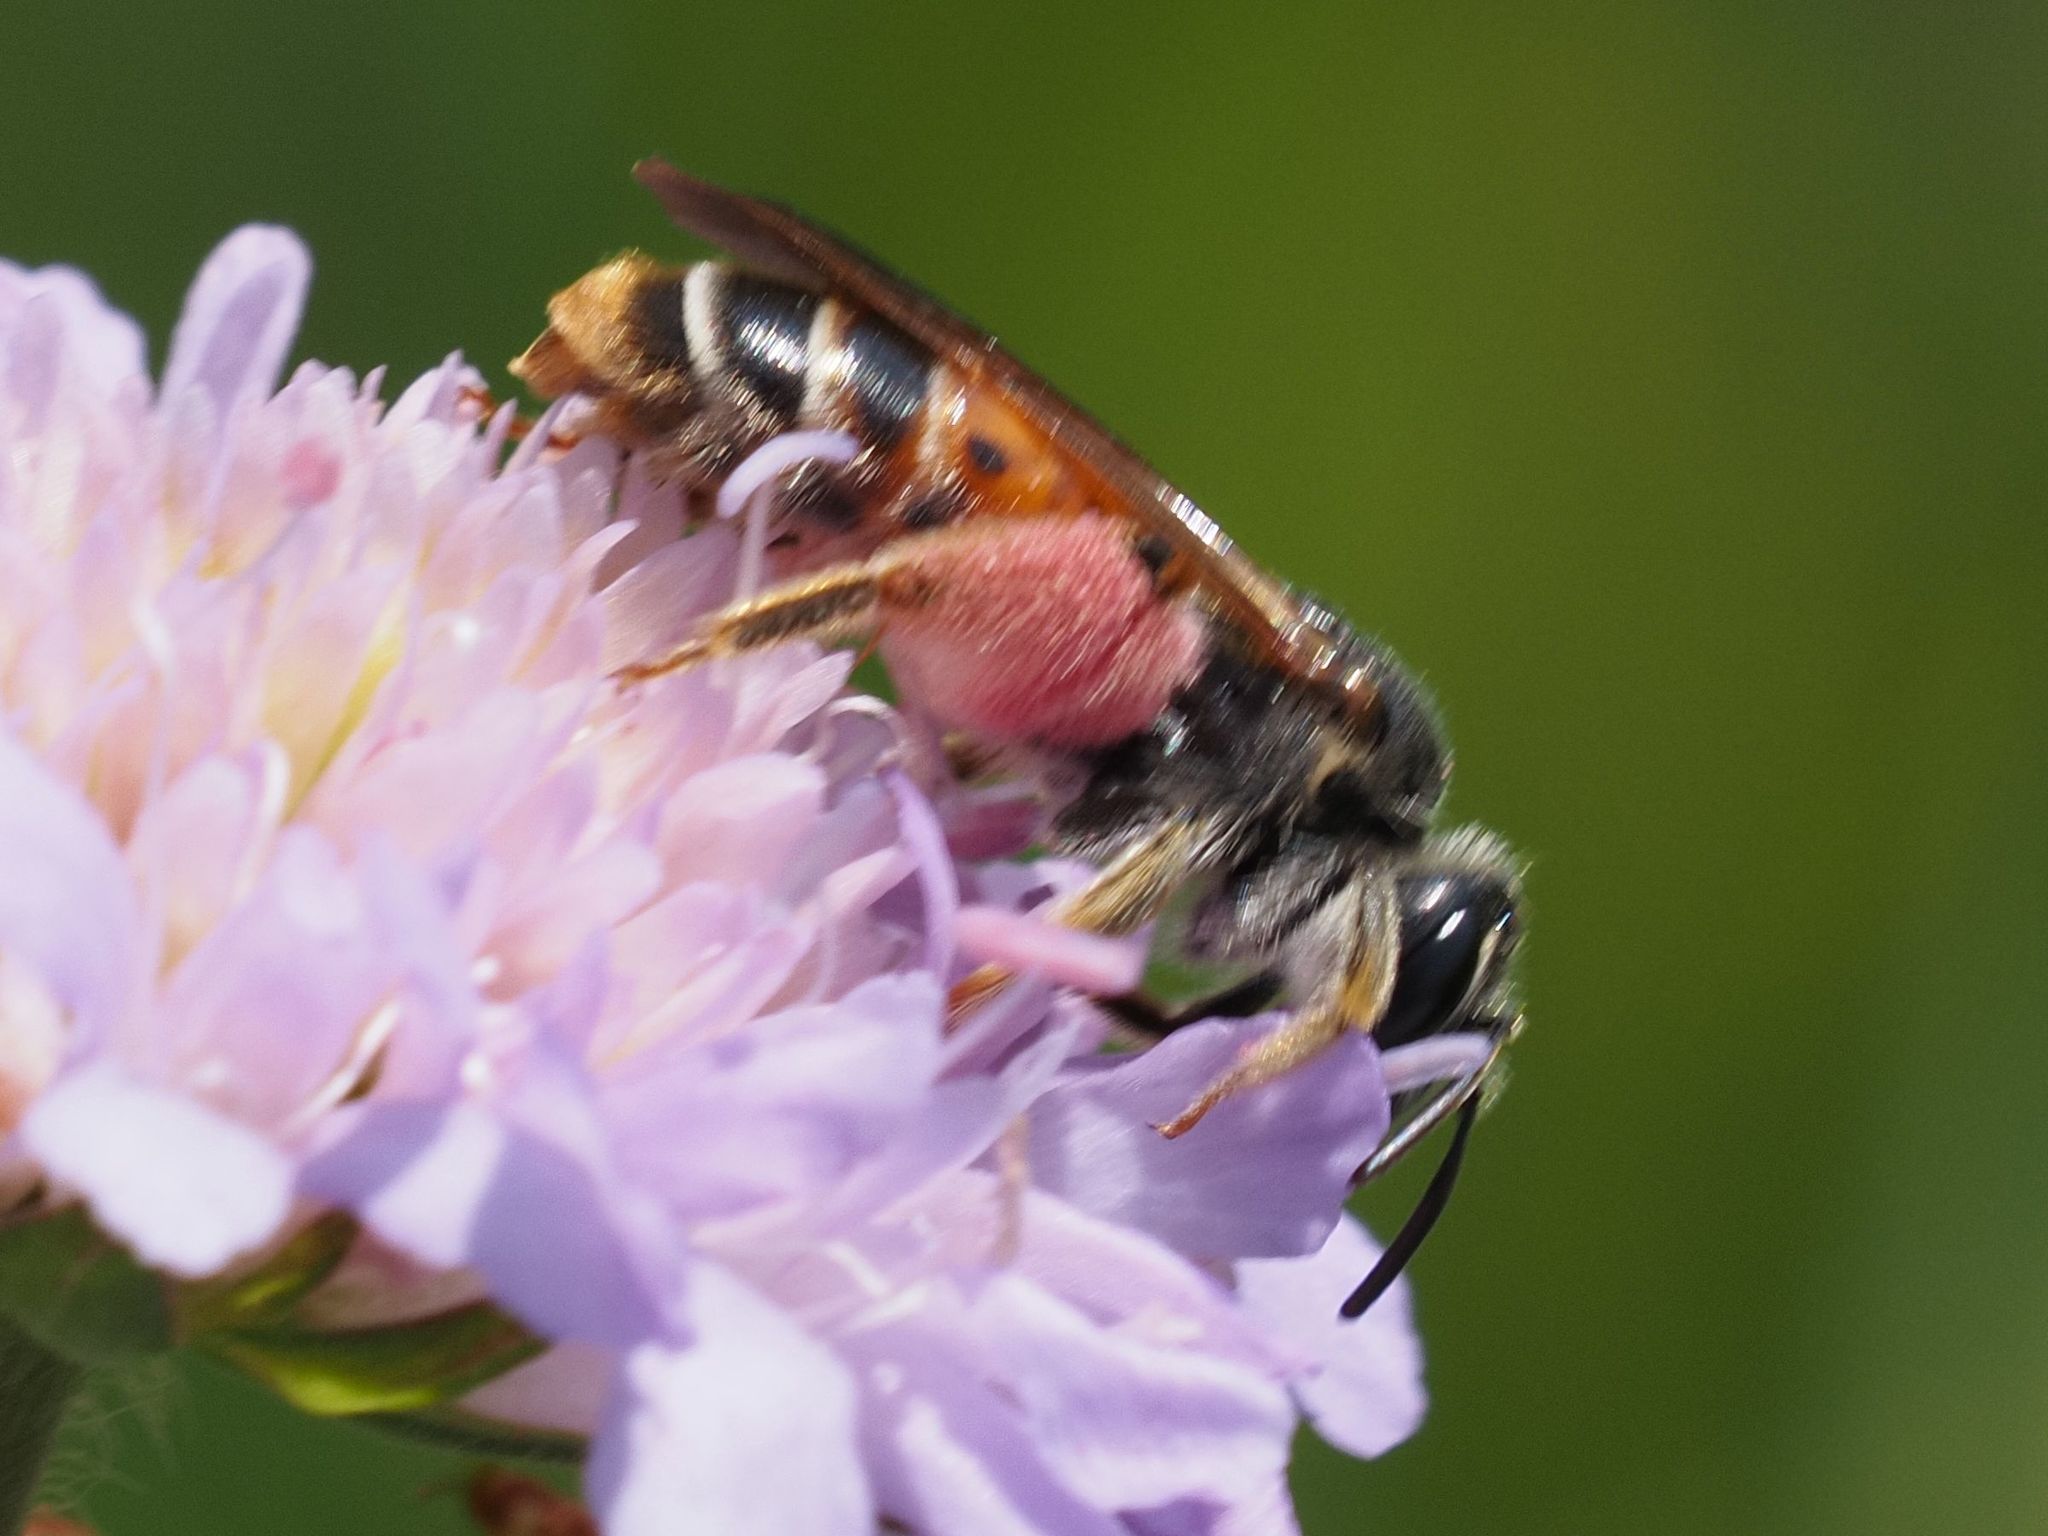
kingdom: Animalia
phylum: Arthropoda
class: Insecta
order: Hymenoptera
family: Andrenidae
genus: Andrena
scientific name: Andrena hattorfiana
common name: Large scabious mining bee
